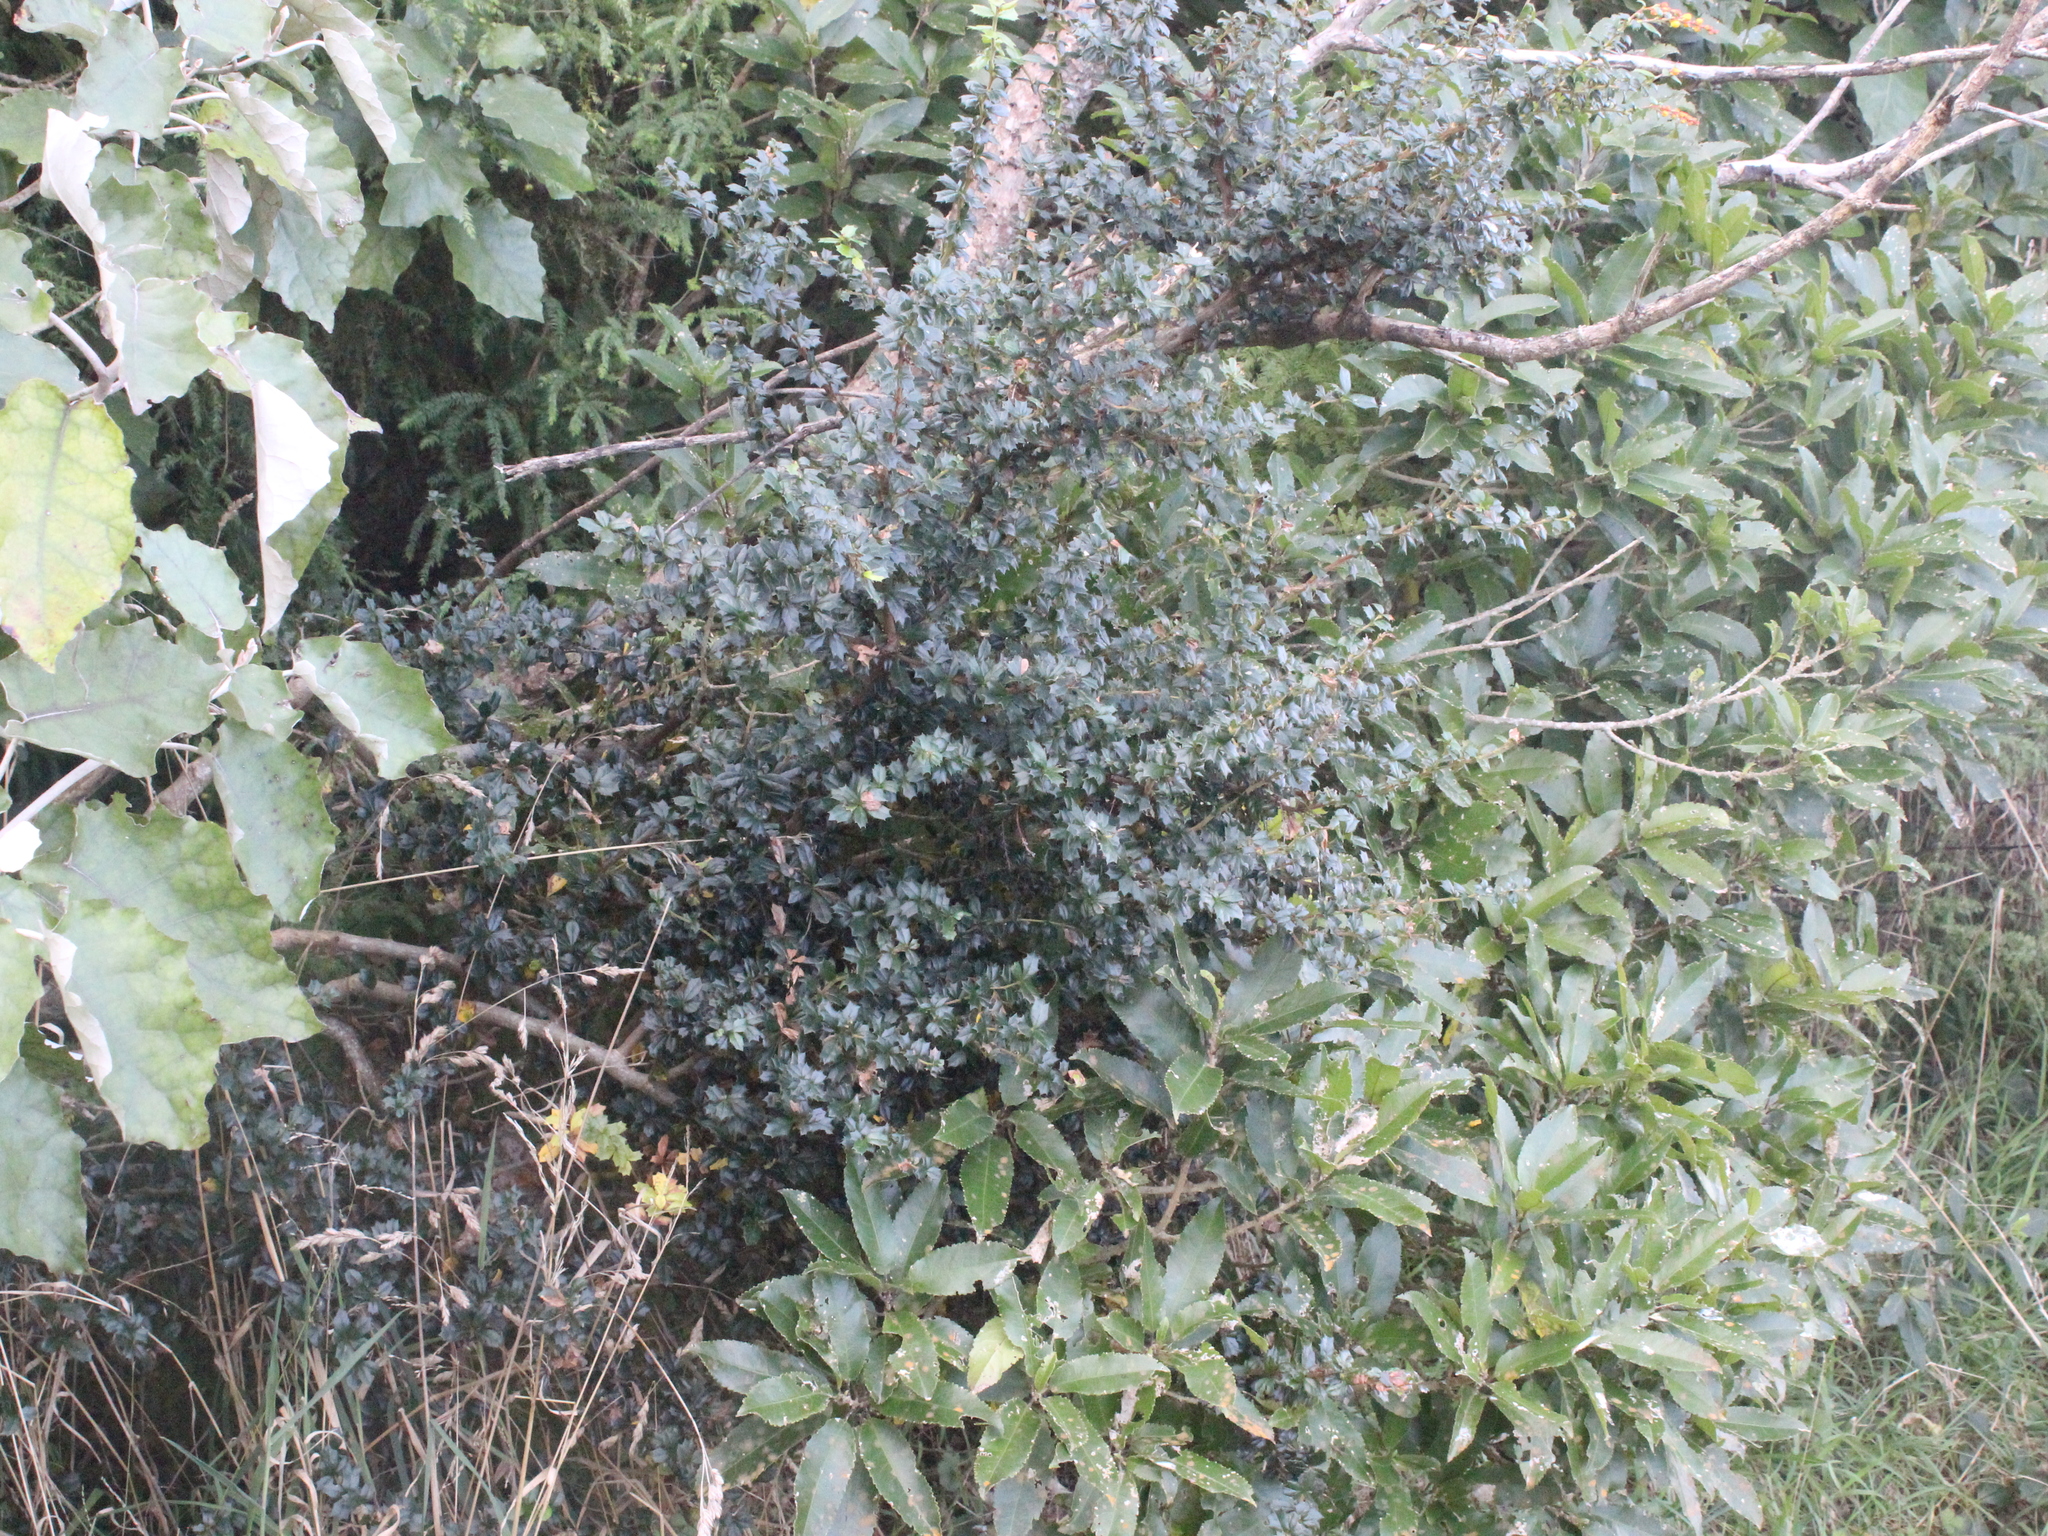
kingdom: Plantae
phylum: Tracheophyta
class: Magnoliopsida
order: Ranunculales
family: Berberidaceae
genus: Berberis
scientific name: Berberis darwinii
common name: Darwin's barberry
